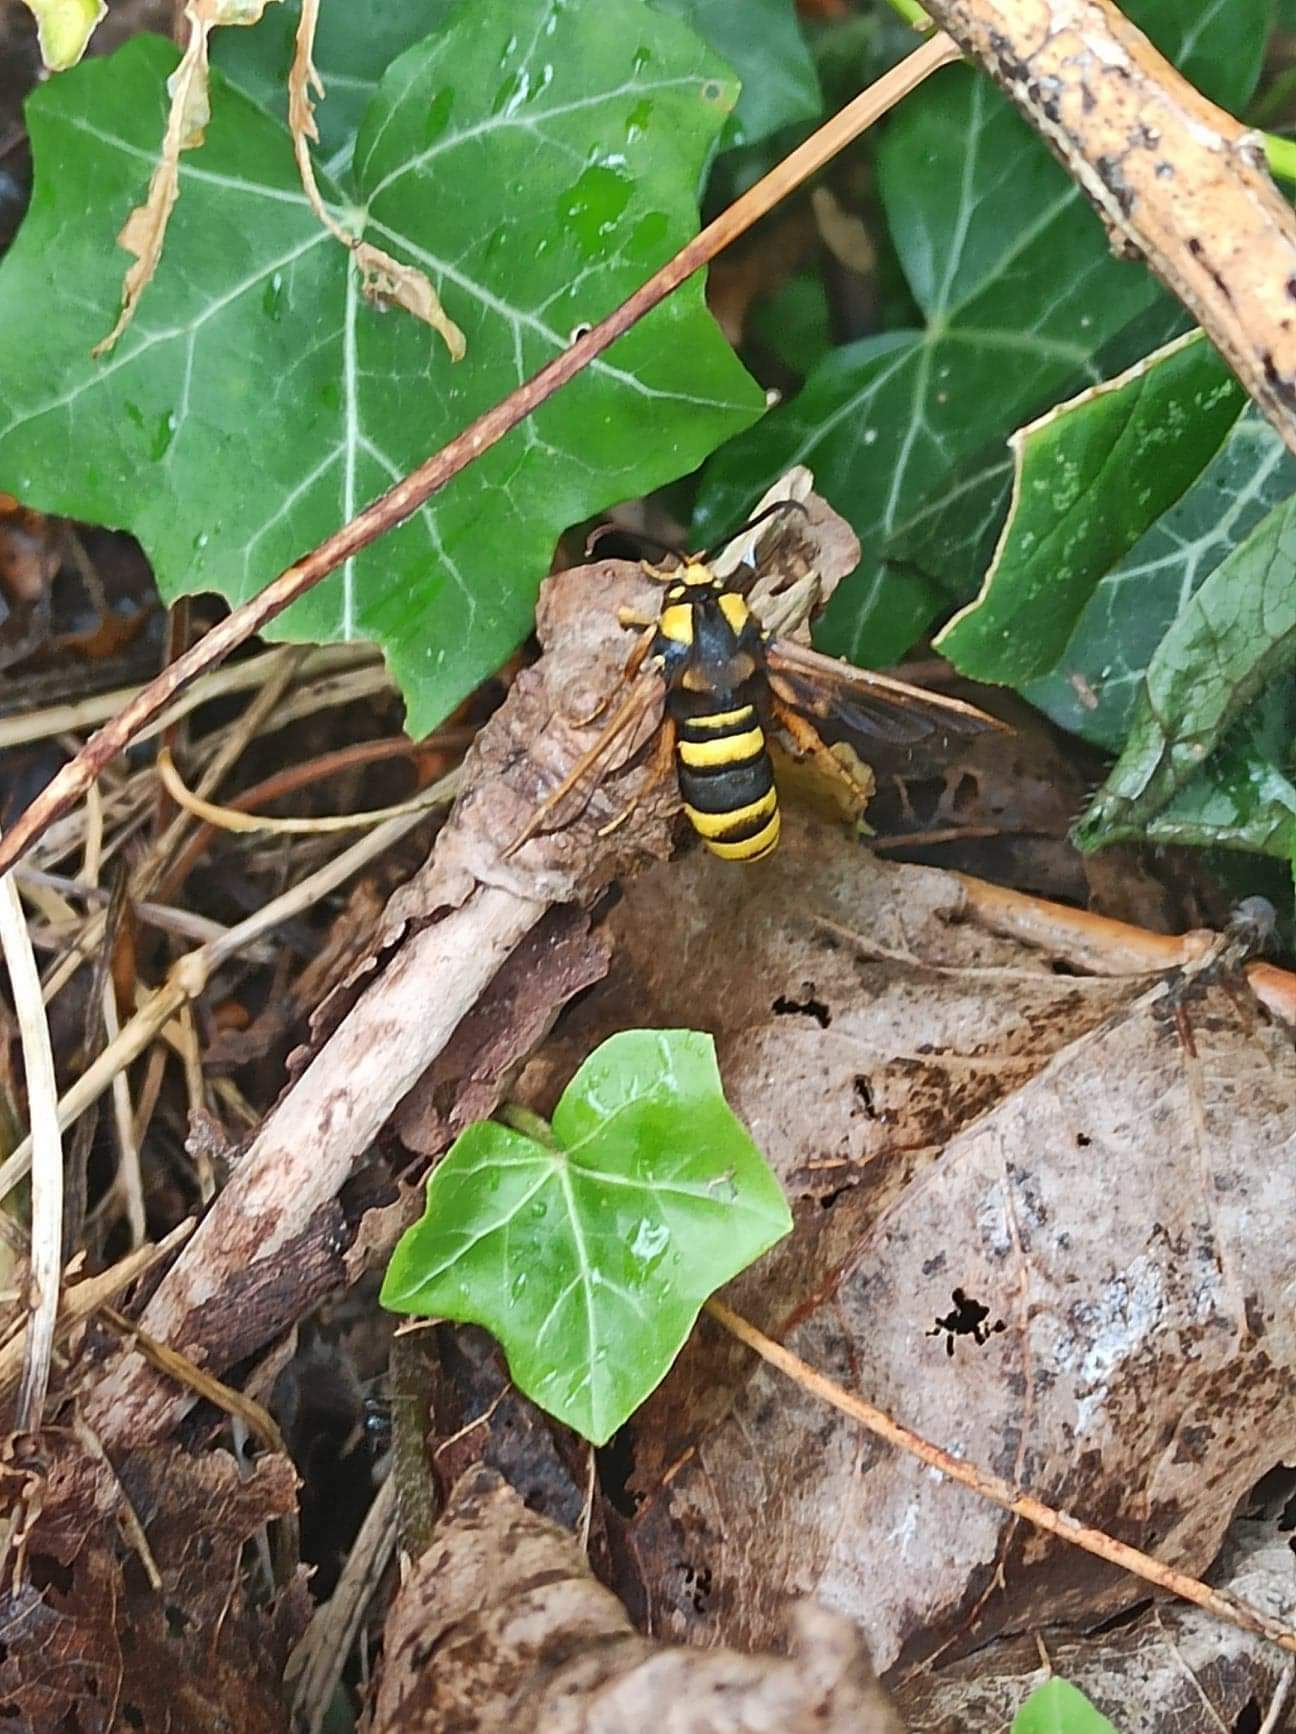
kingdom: Animalia
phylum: Arthropoda
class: Insecta
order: Lepidoptera
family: Sesiidae
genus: Sesia
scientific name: Sesia apiformis
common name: Hornet moth
